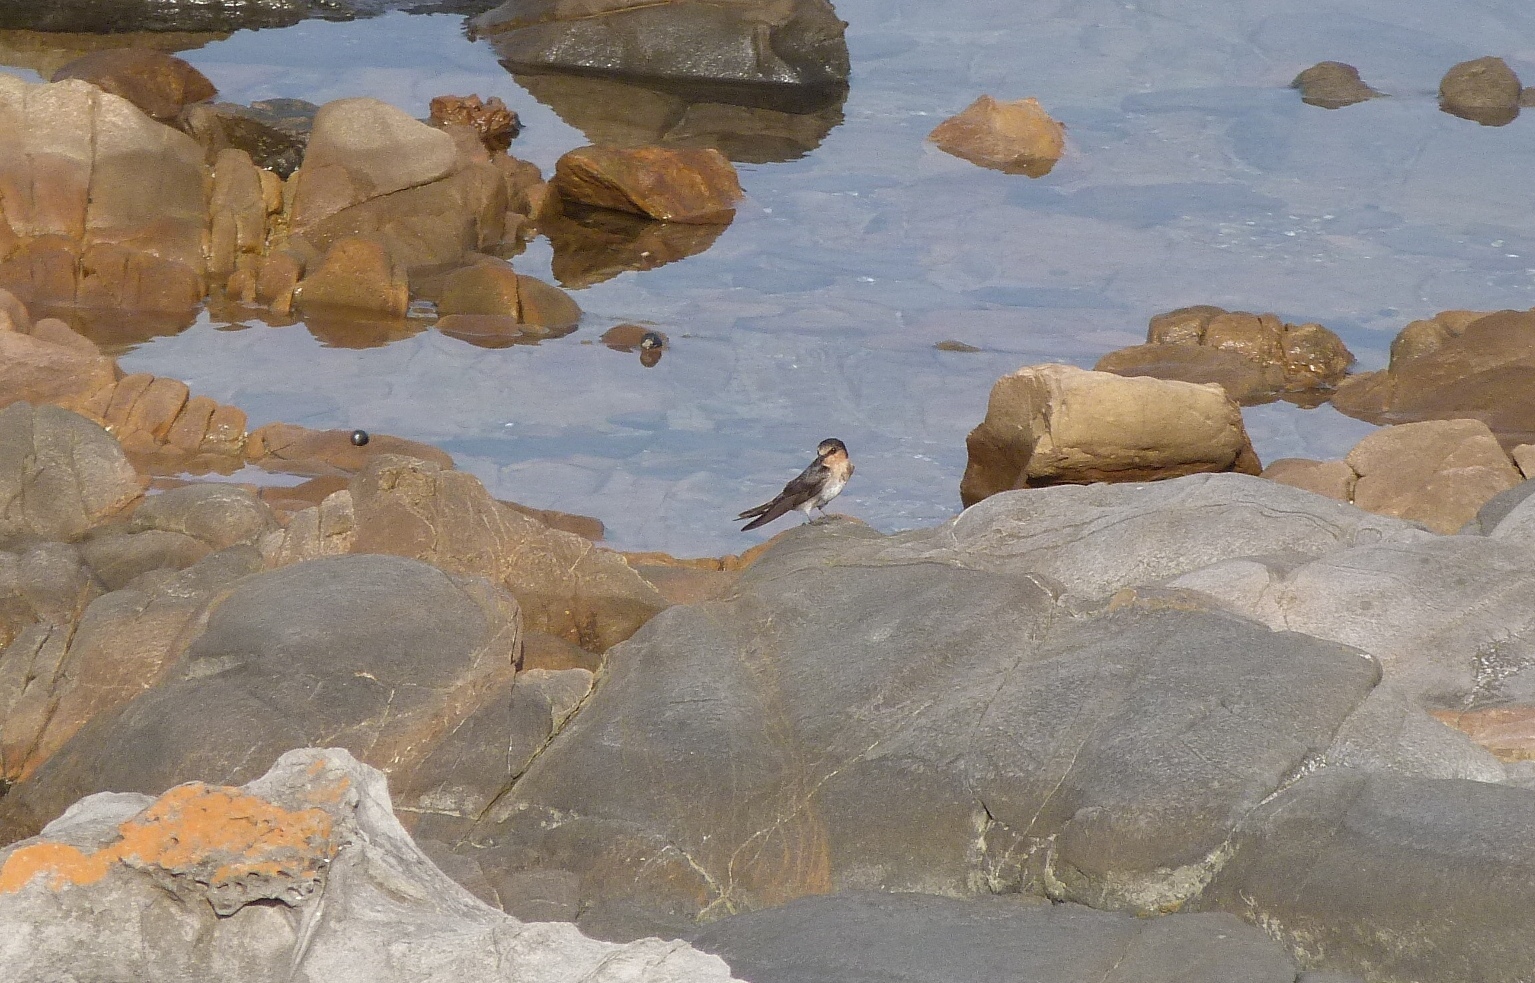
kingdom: Animalia
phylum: Chordata
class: Aves
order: Passeriformes
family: Hirundinidae
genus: Hirundo
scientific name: Hirundo neoxena
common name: Welcome swallow
